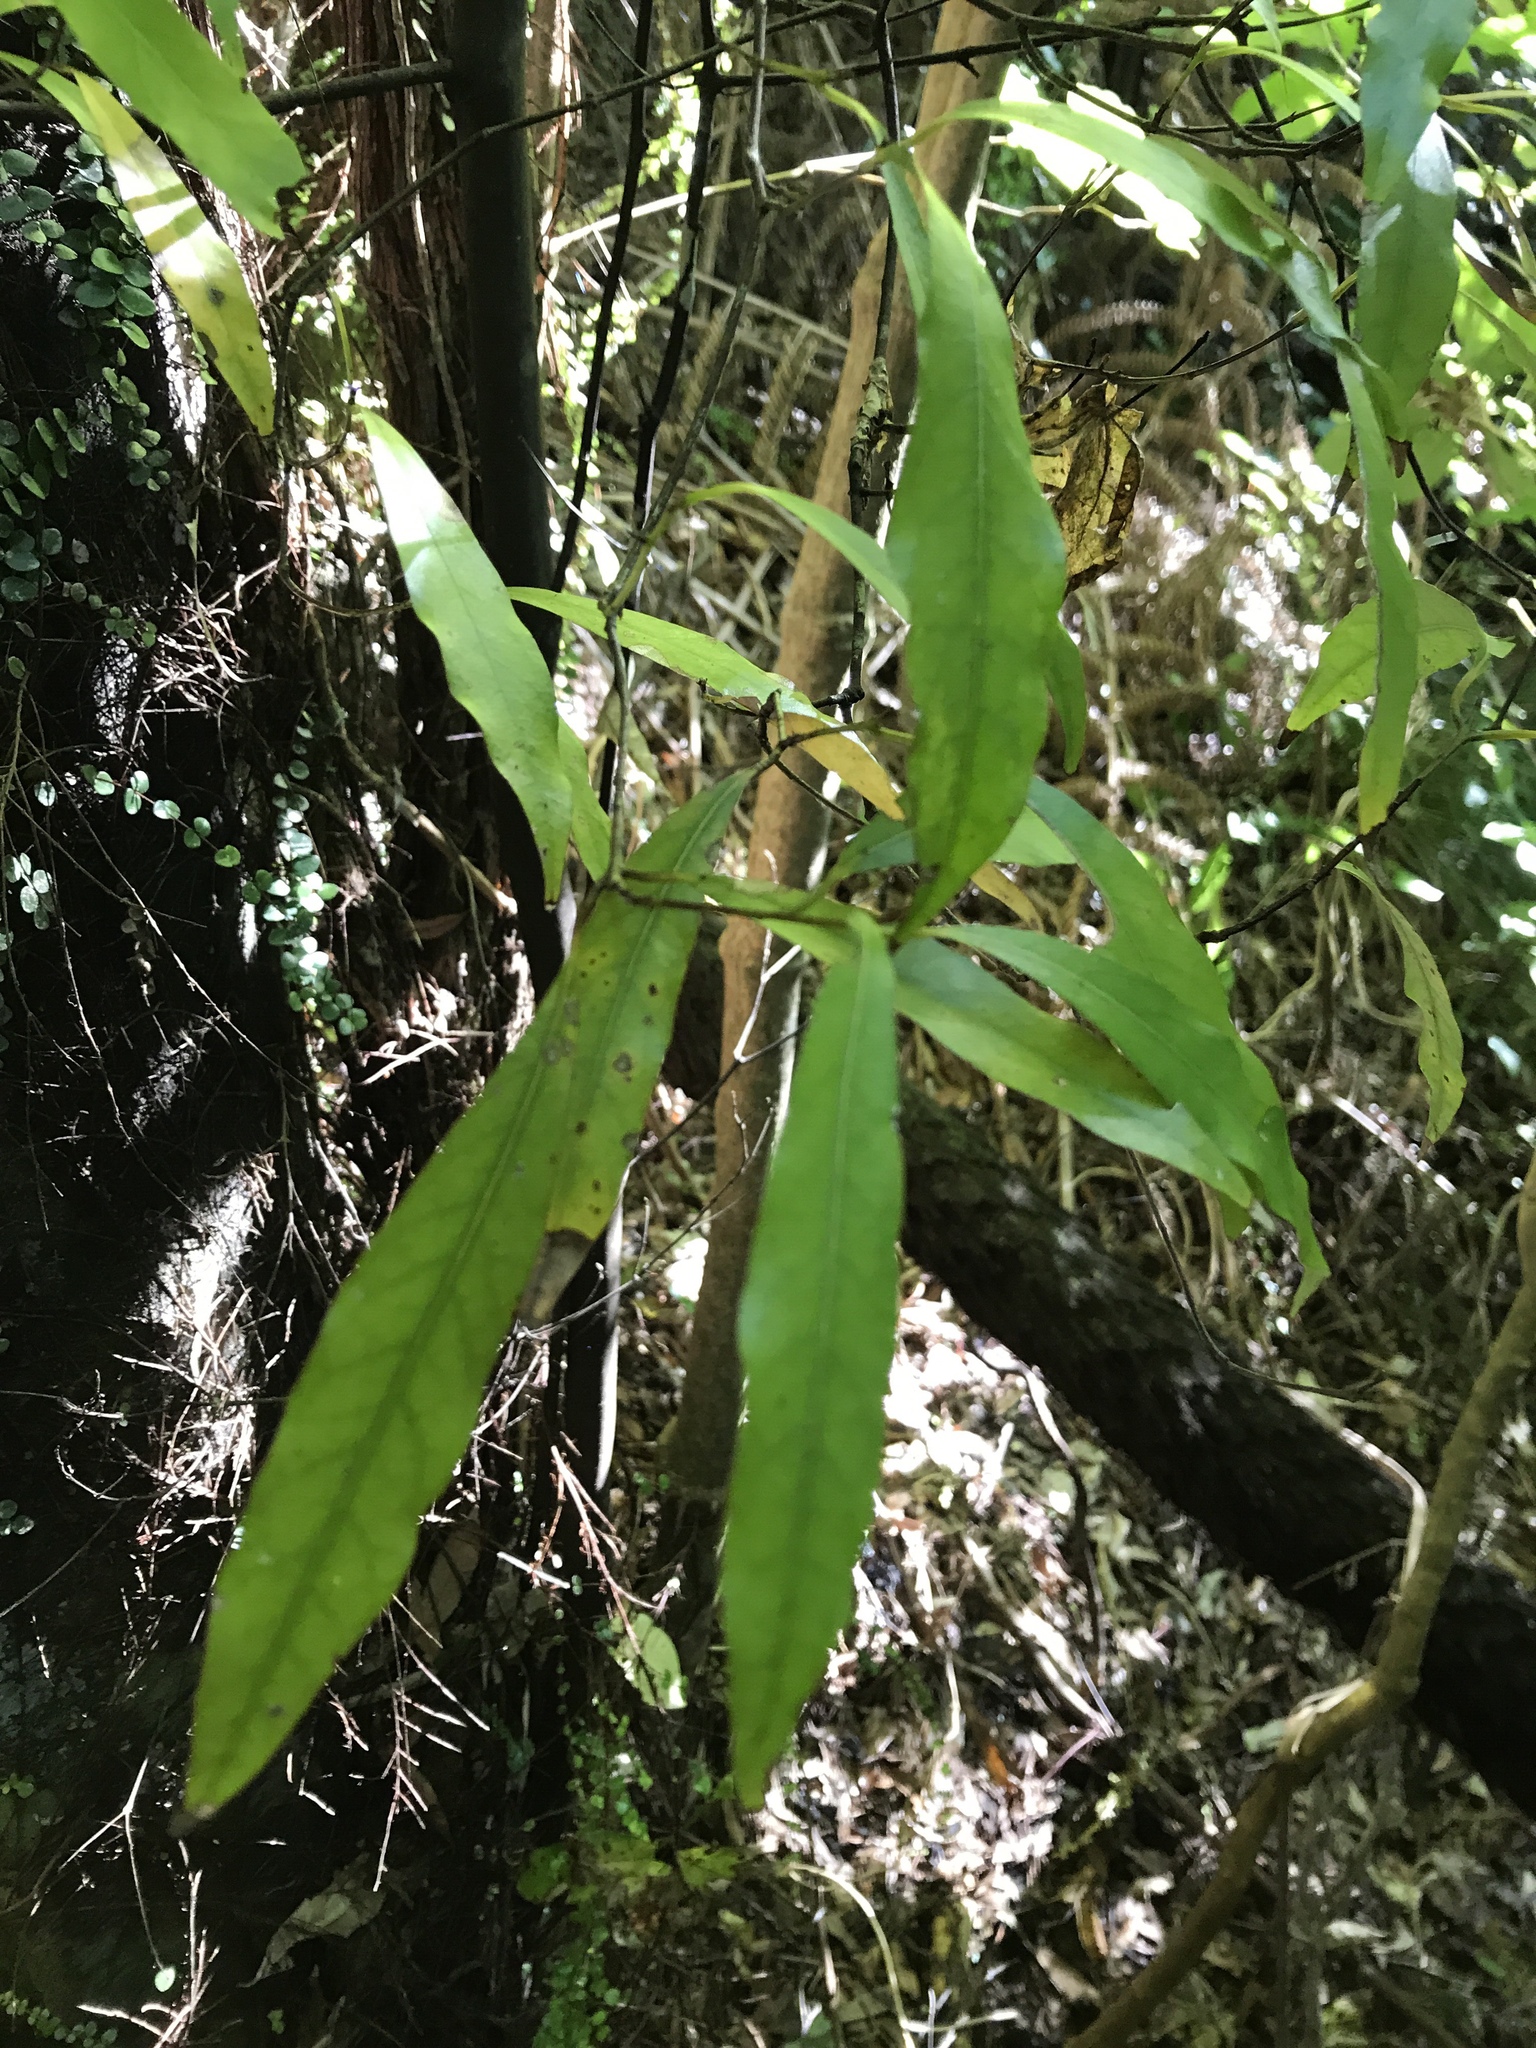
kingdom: Plantae
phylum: Tracheophyta
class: Magnoliopsida
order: Laurales
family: Lauraceae
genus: Beilschmiedia
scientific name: Beilschmiedia tawa
